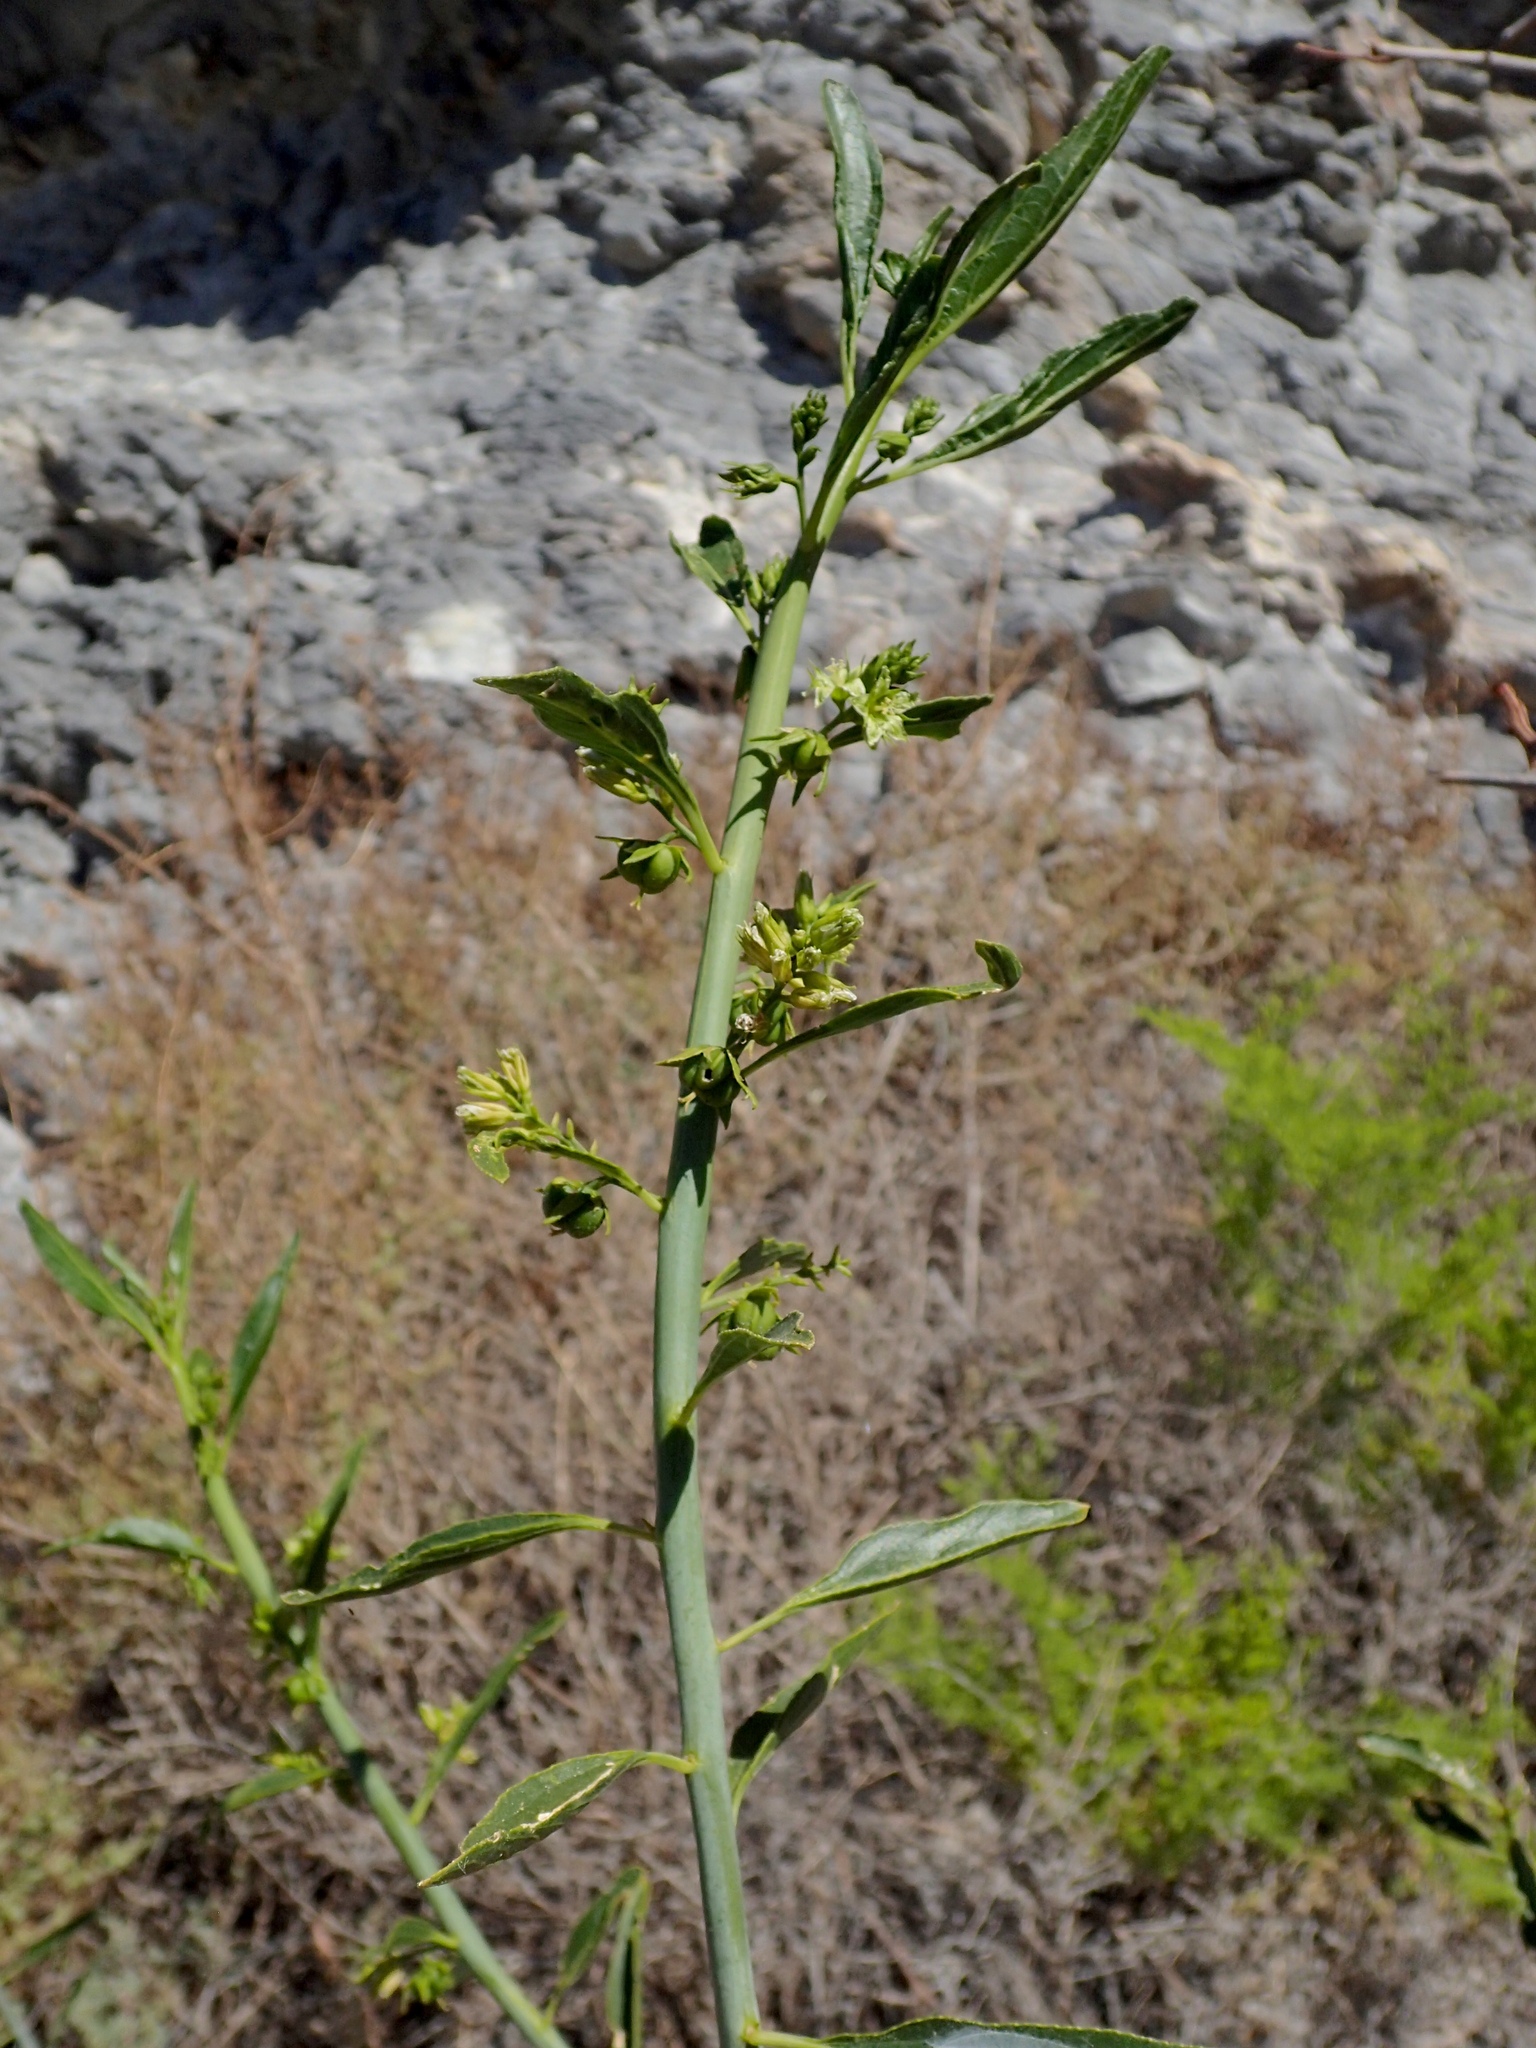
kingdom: Plantae
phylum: Tracheophyta
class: Magnoliopsida
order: Malpighiales
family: Euphorbiaceae
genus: Ditaxis
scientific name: Ditaxis brandegeei
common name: Sonoran silverbush
